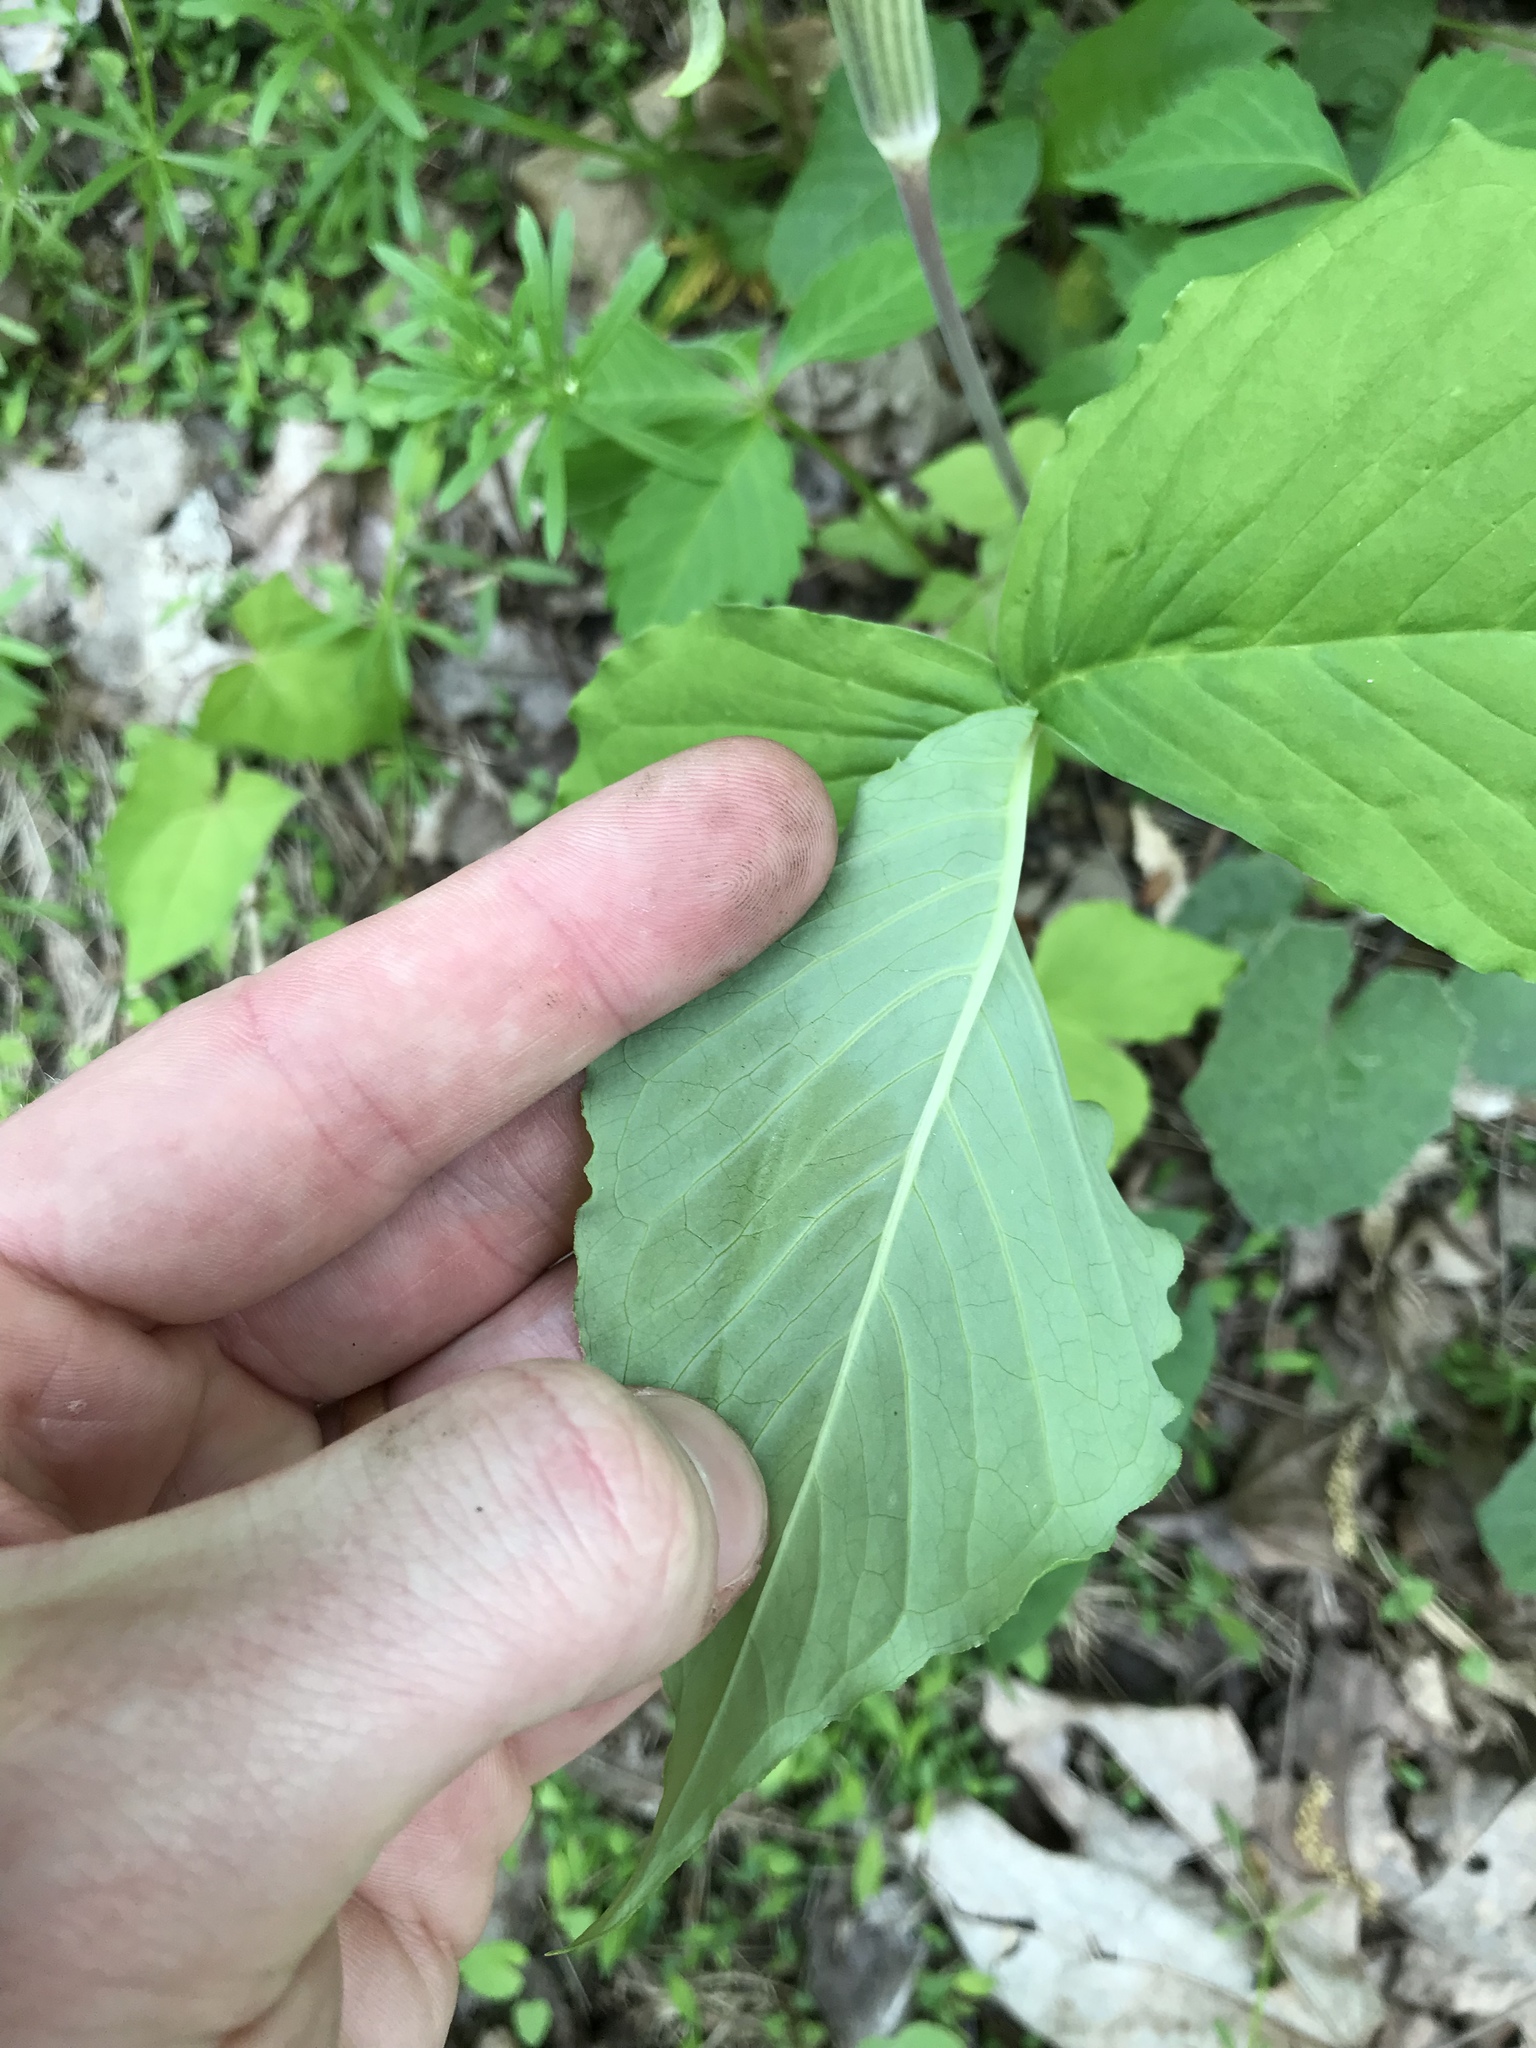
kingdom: Plantae
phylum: Tracheophyta
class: Liliopsida
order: Alismatales
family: Araceae
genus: Arisaema
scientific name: Arisaema triphyllum
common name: Jack-in-the-pulpit
